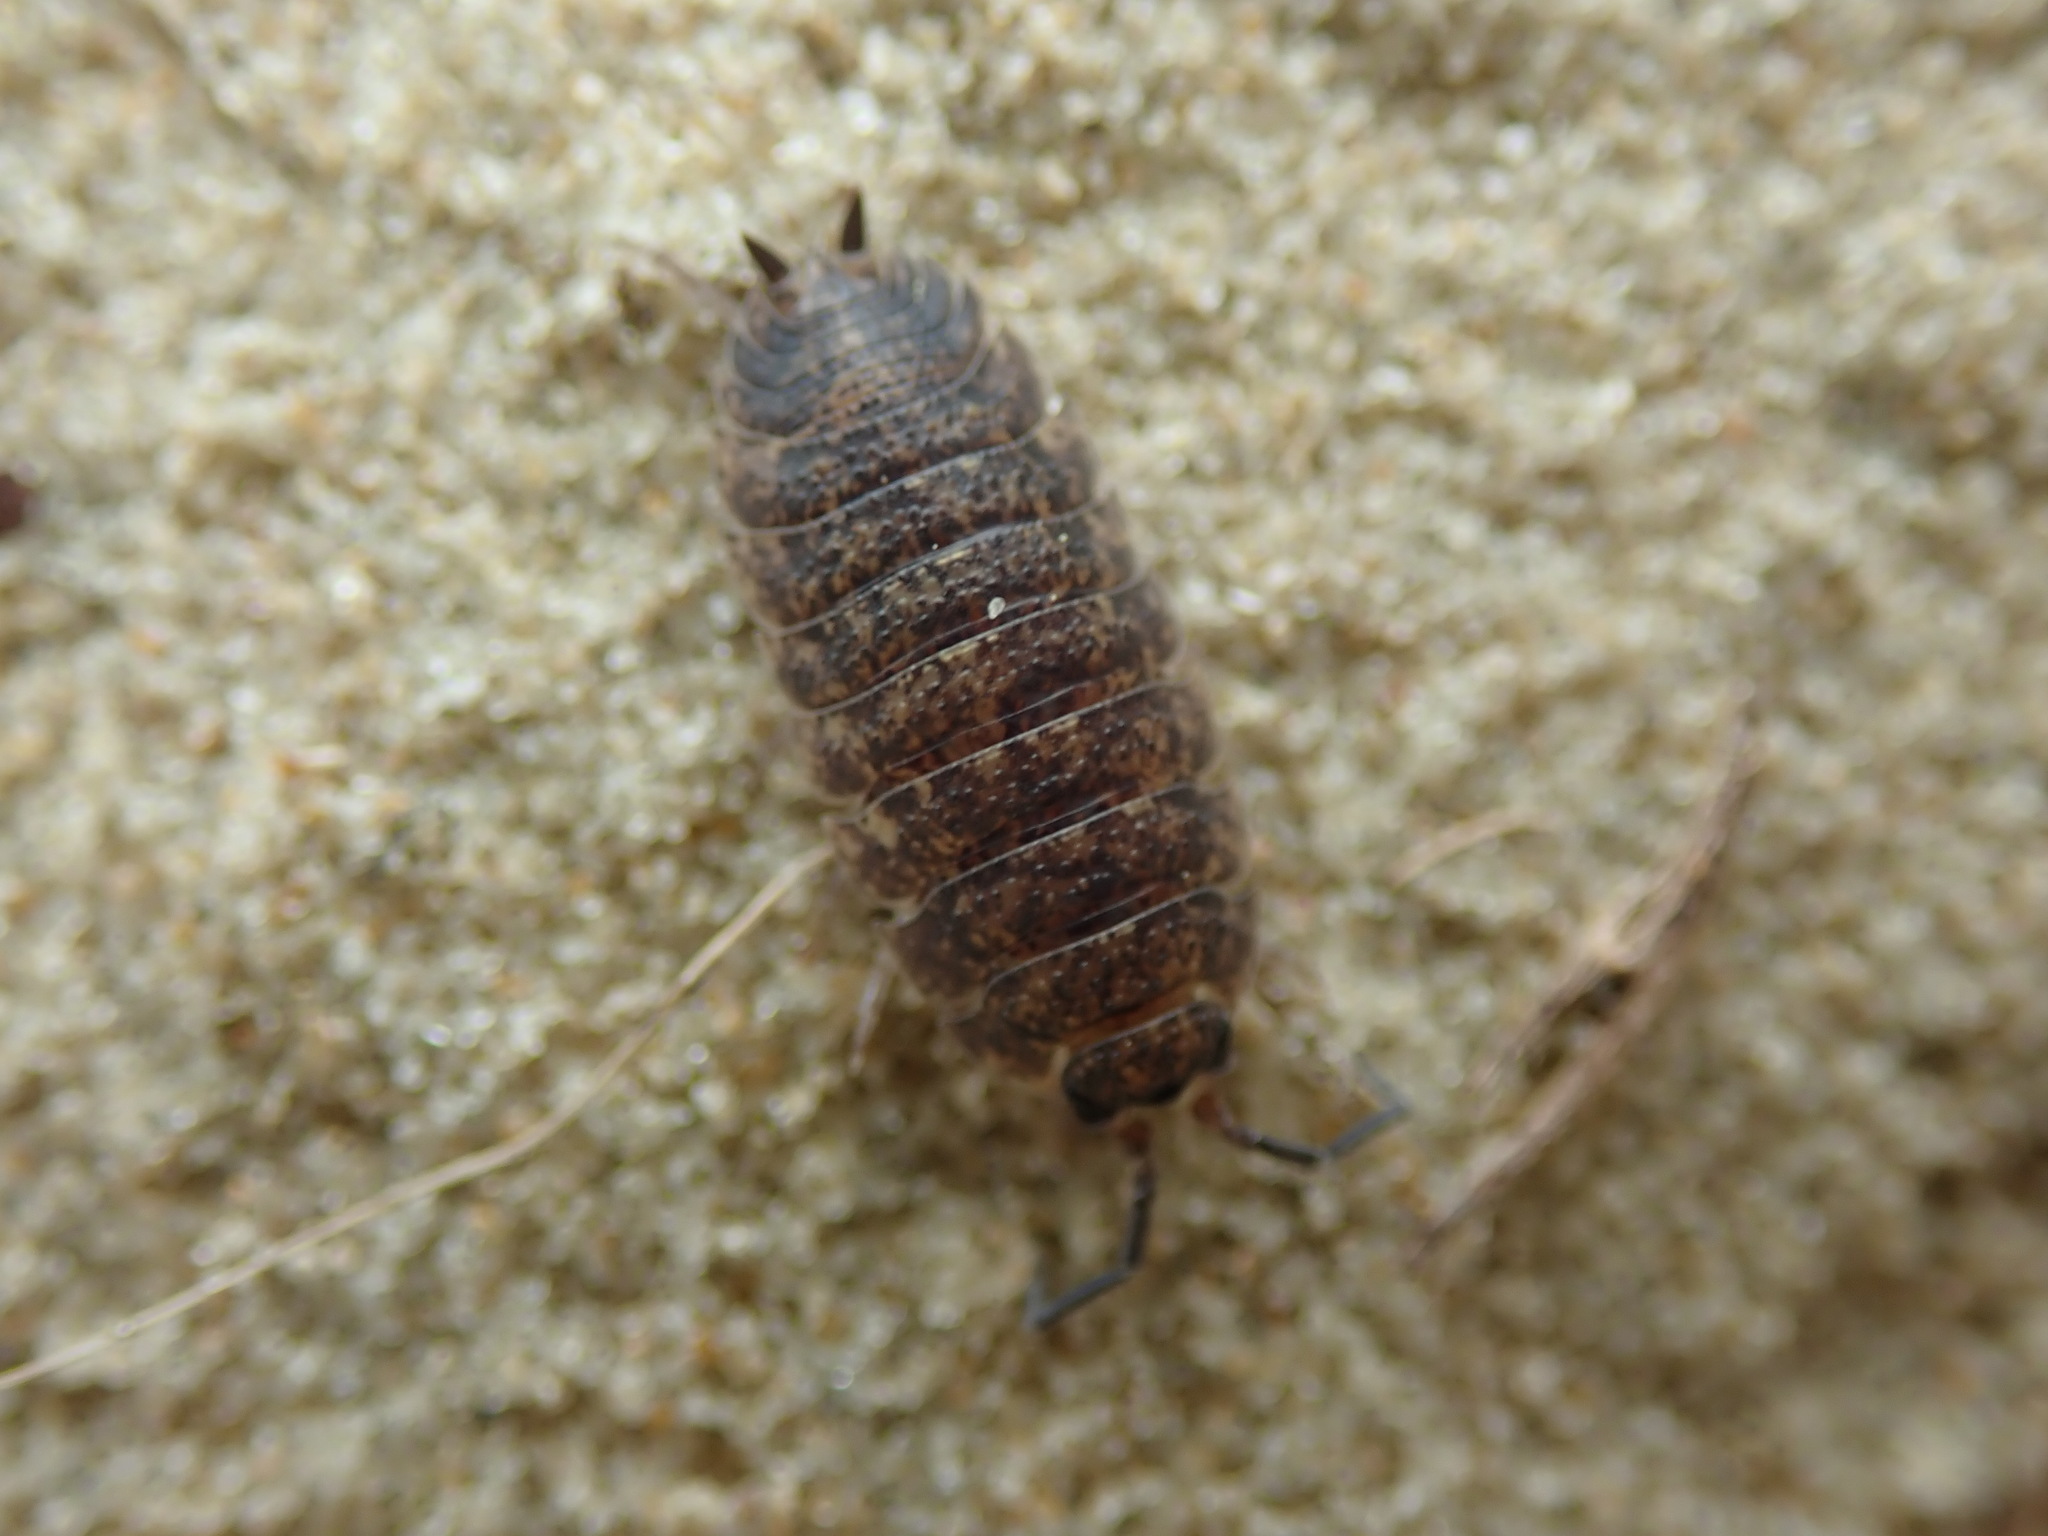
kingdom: Animalia
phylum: Arthropoda
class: Malacostraca
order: Isopoda
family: Porcellionidae
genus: Porcellio
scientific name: Porcellio scaber
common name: Common rough woodlouse
